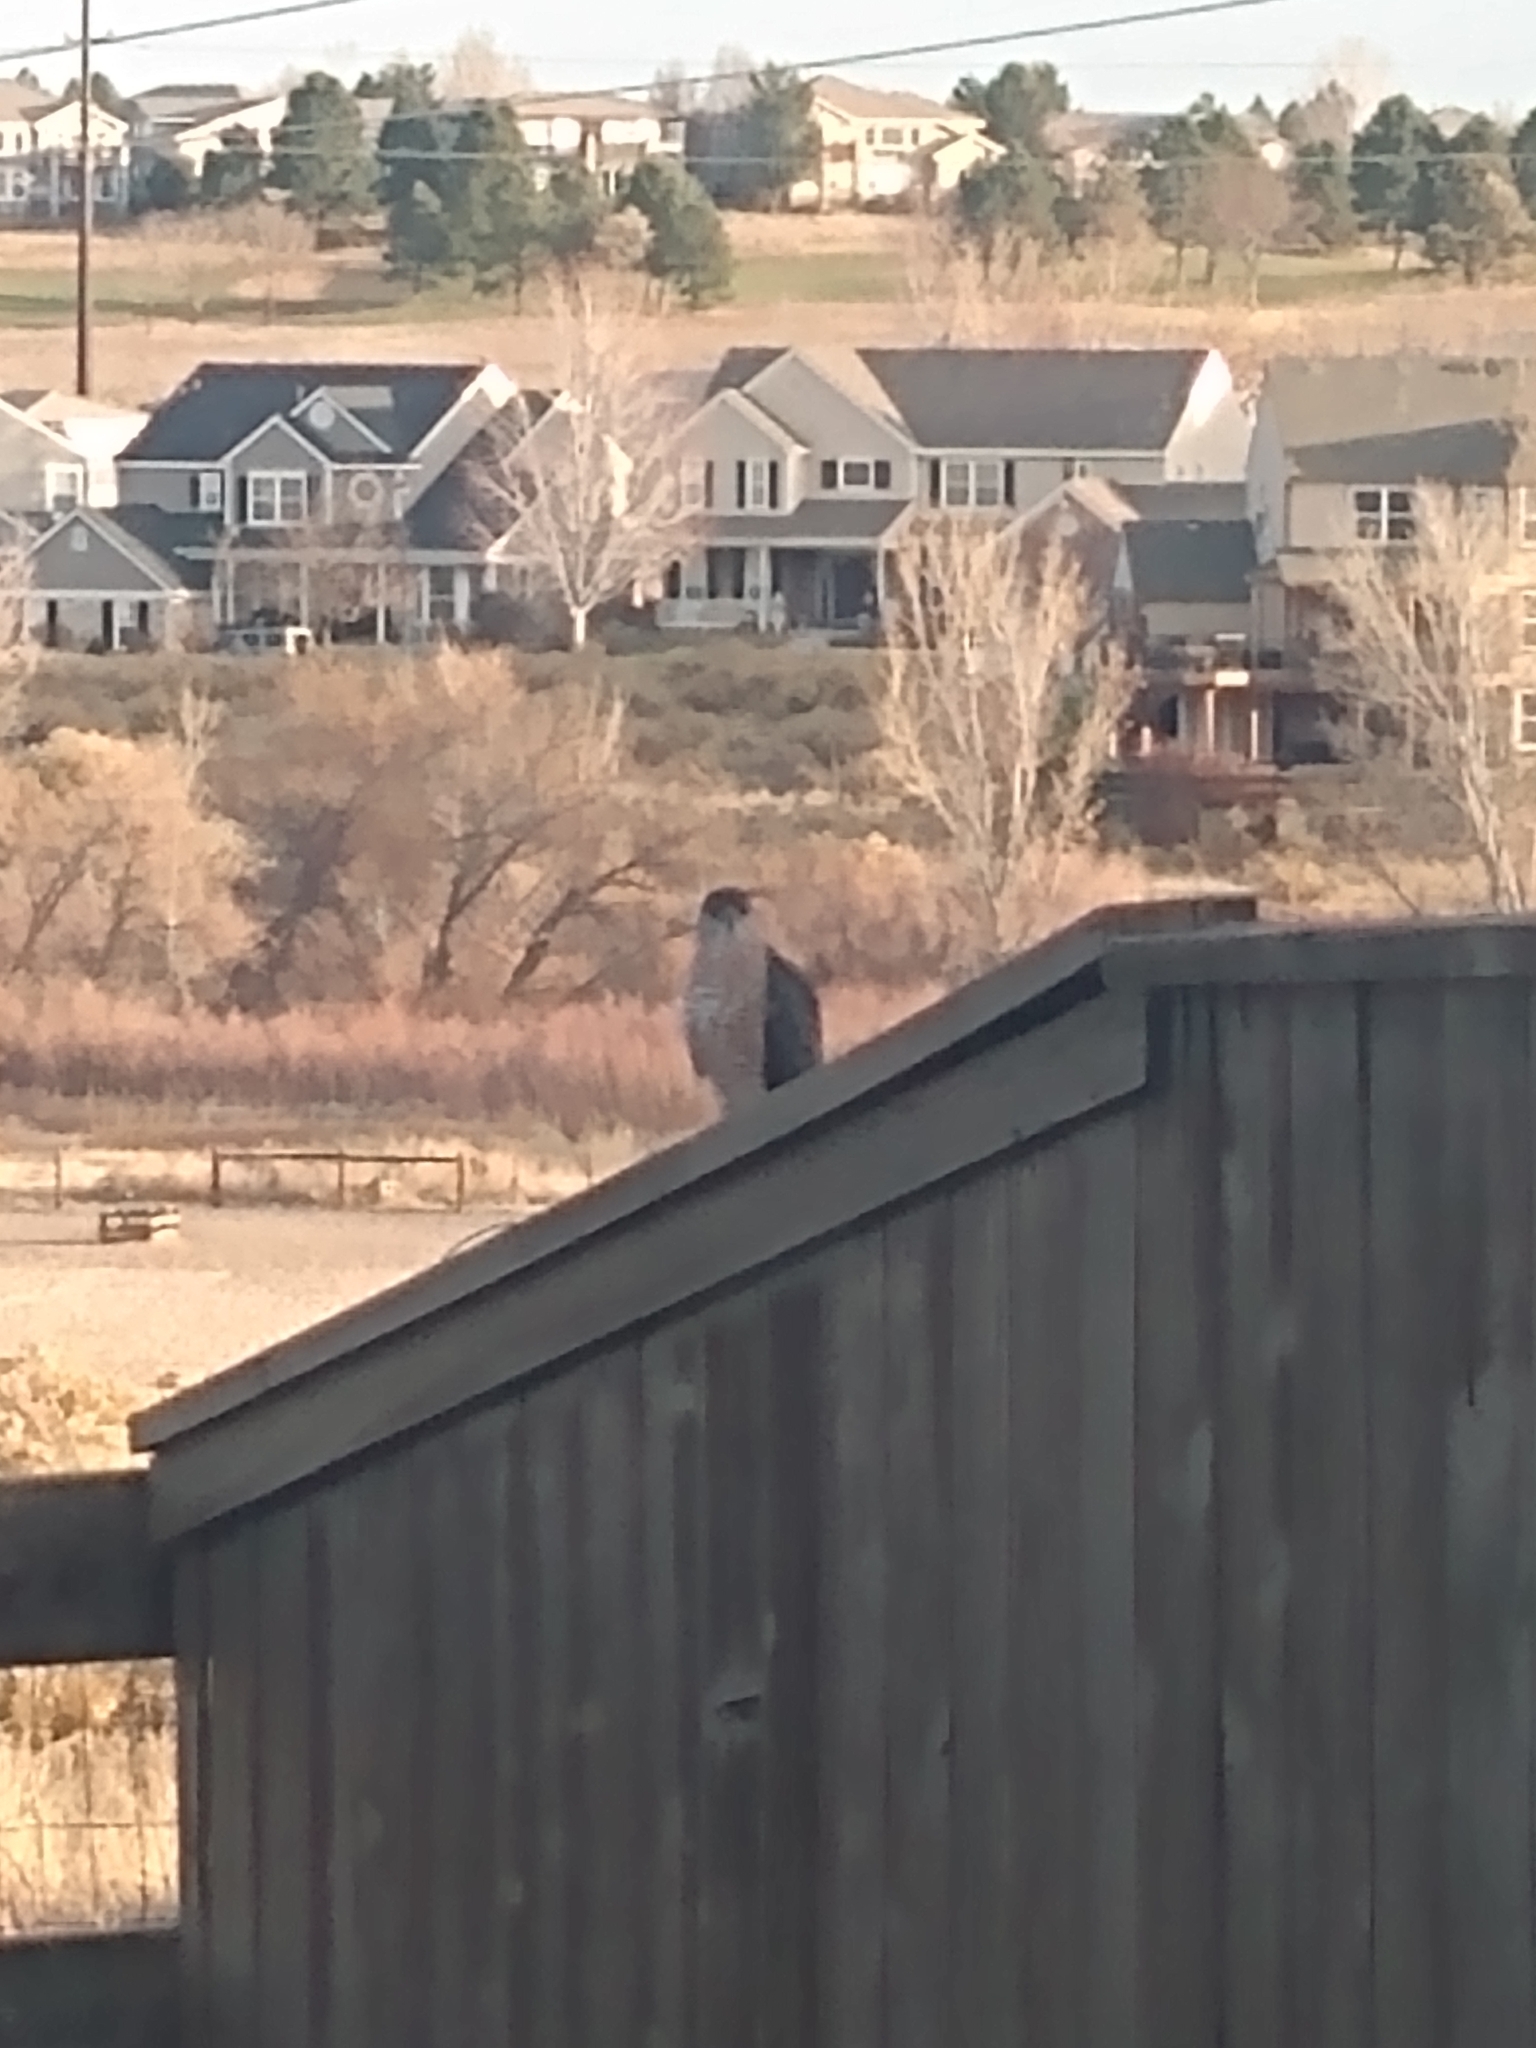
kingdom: Animalia
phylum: Chordata
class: Aves
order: Accipitriformes
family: Accipitridae
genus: Accipiter
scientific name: Accipiter cooperii
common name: Cooper's hawk
